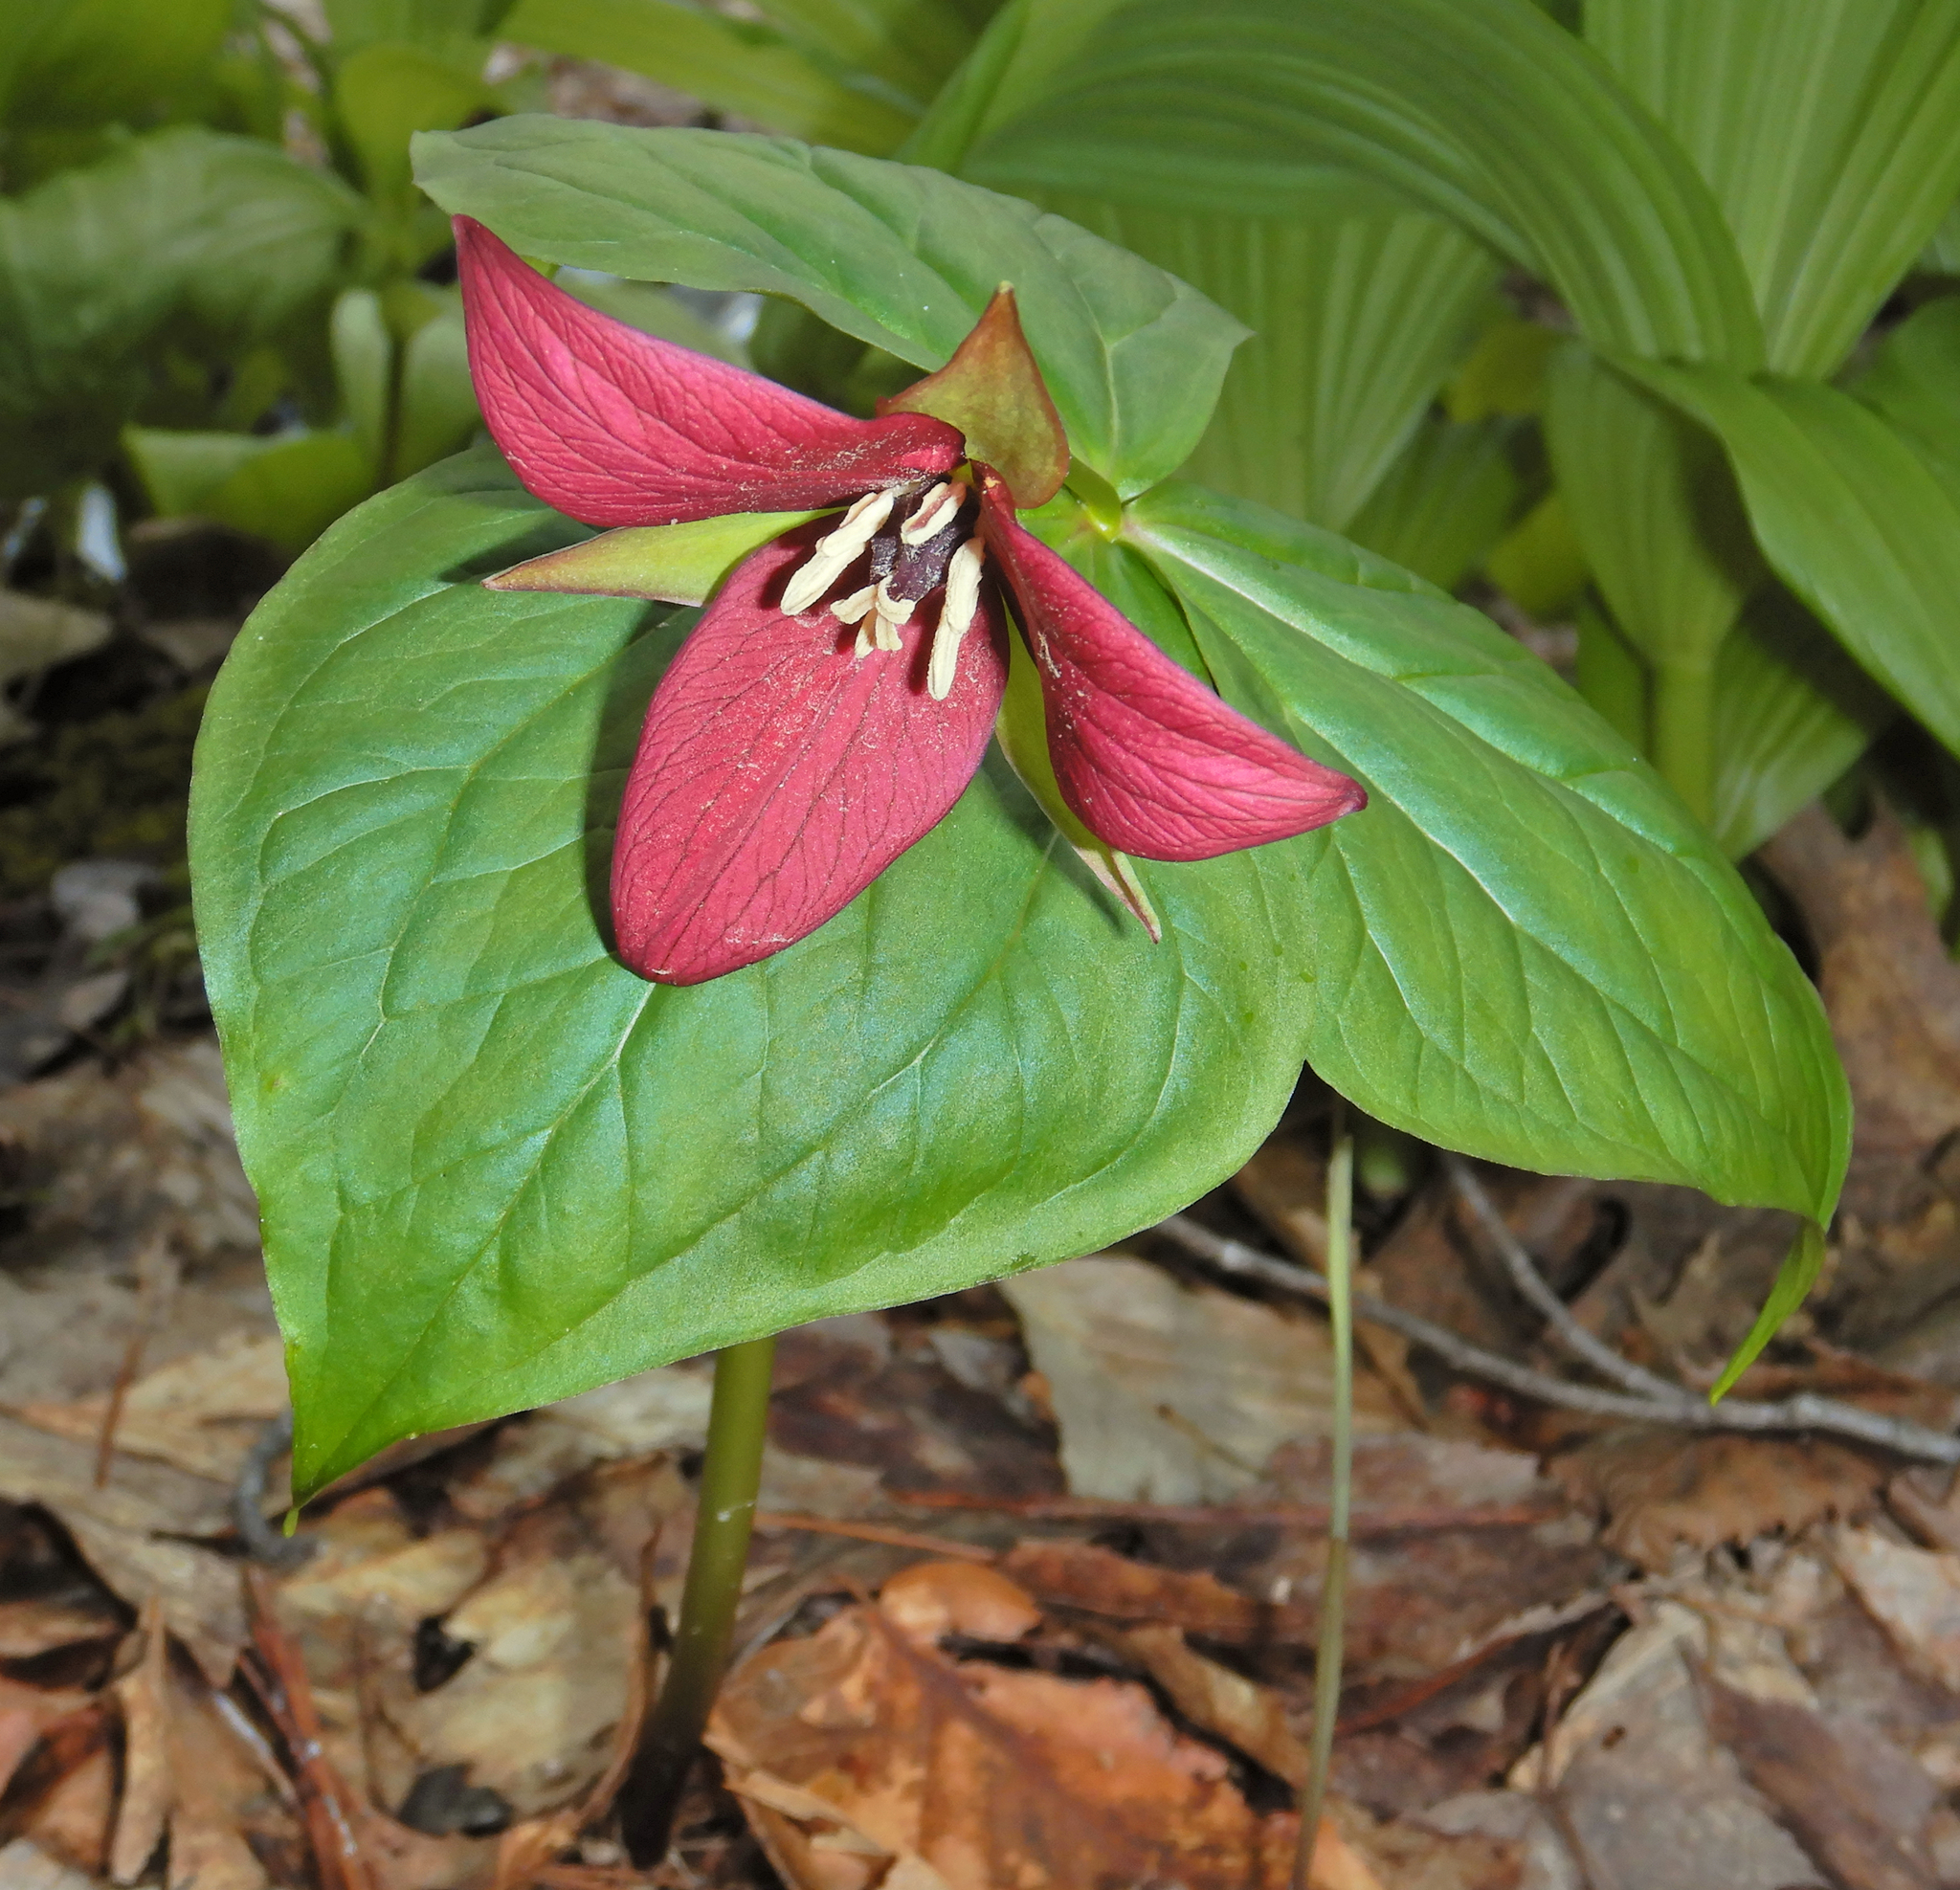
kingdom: Plantae
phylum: Tracheophyta
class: Liliopsida
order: Liliales
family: Melanthiaceae
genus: Trillium
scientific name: Trillium erectum
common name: Purple trillium
